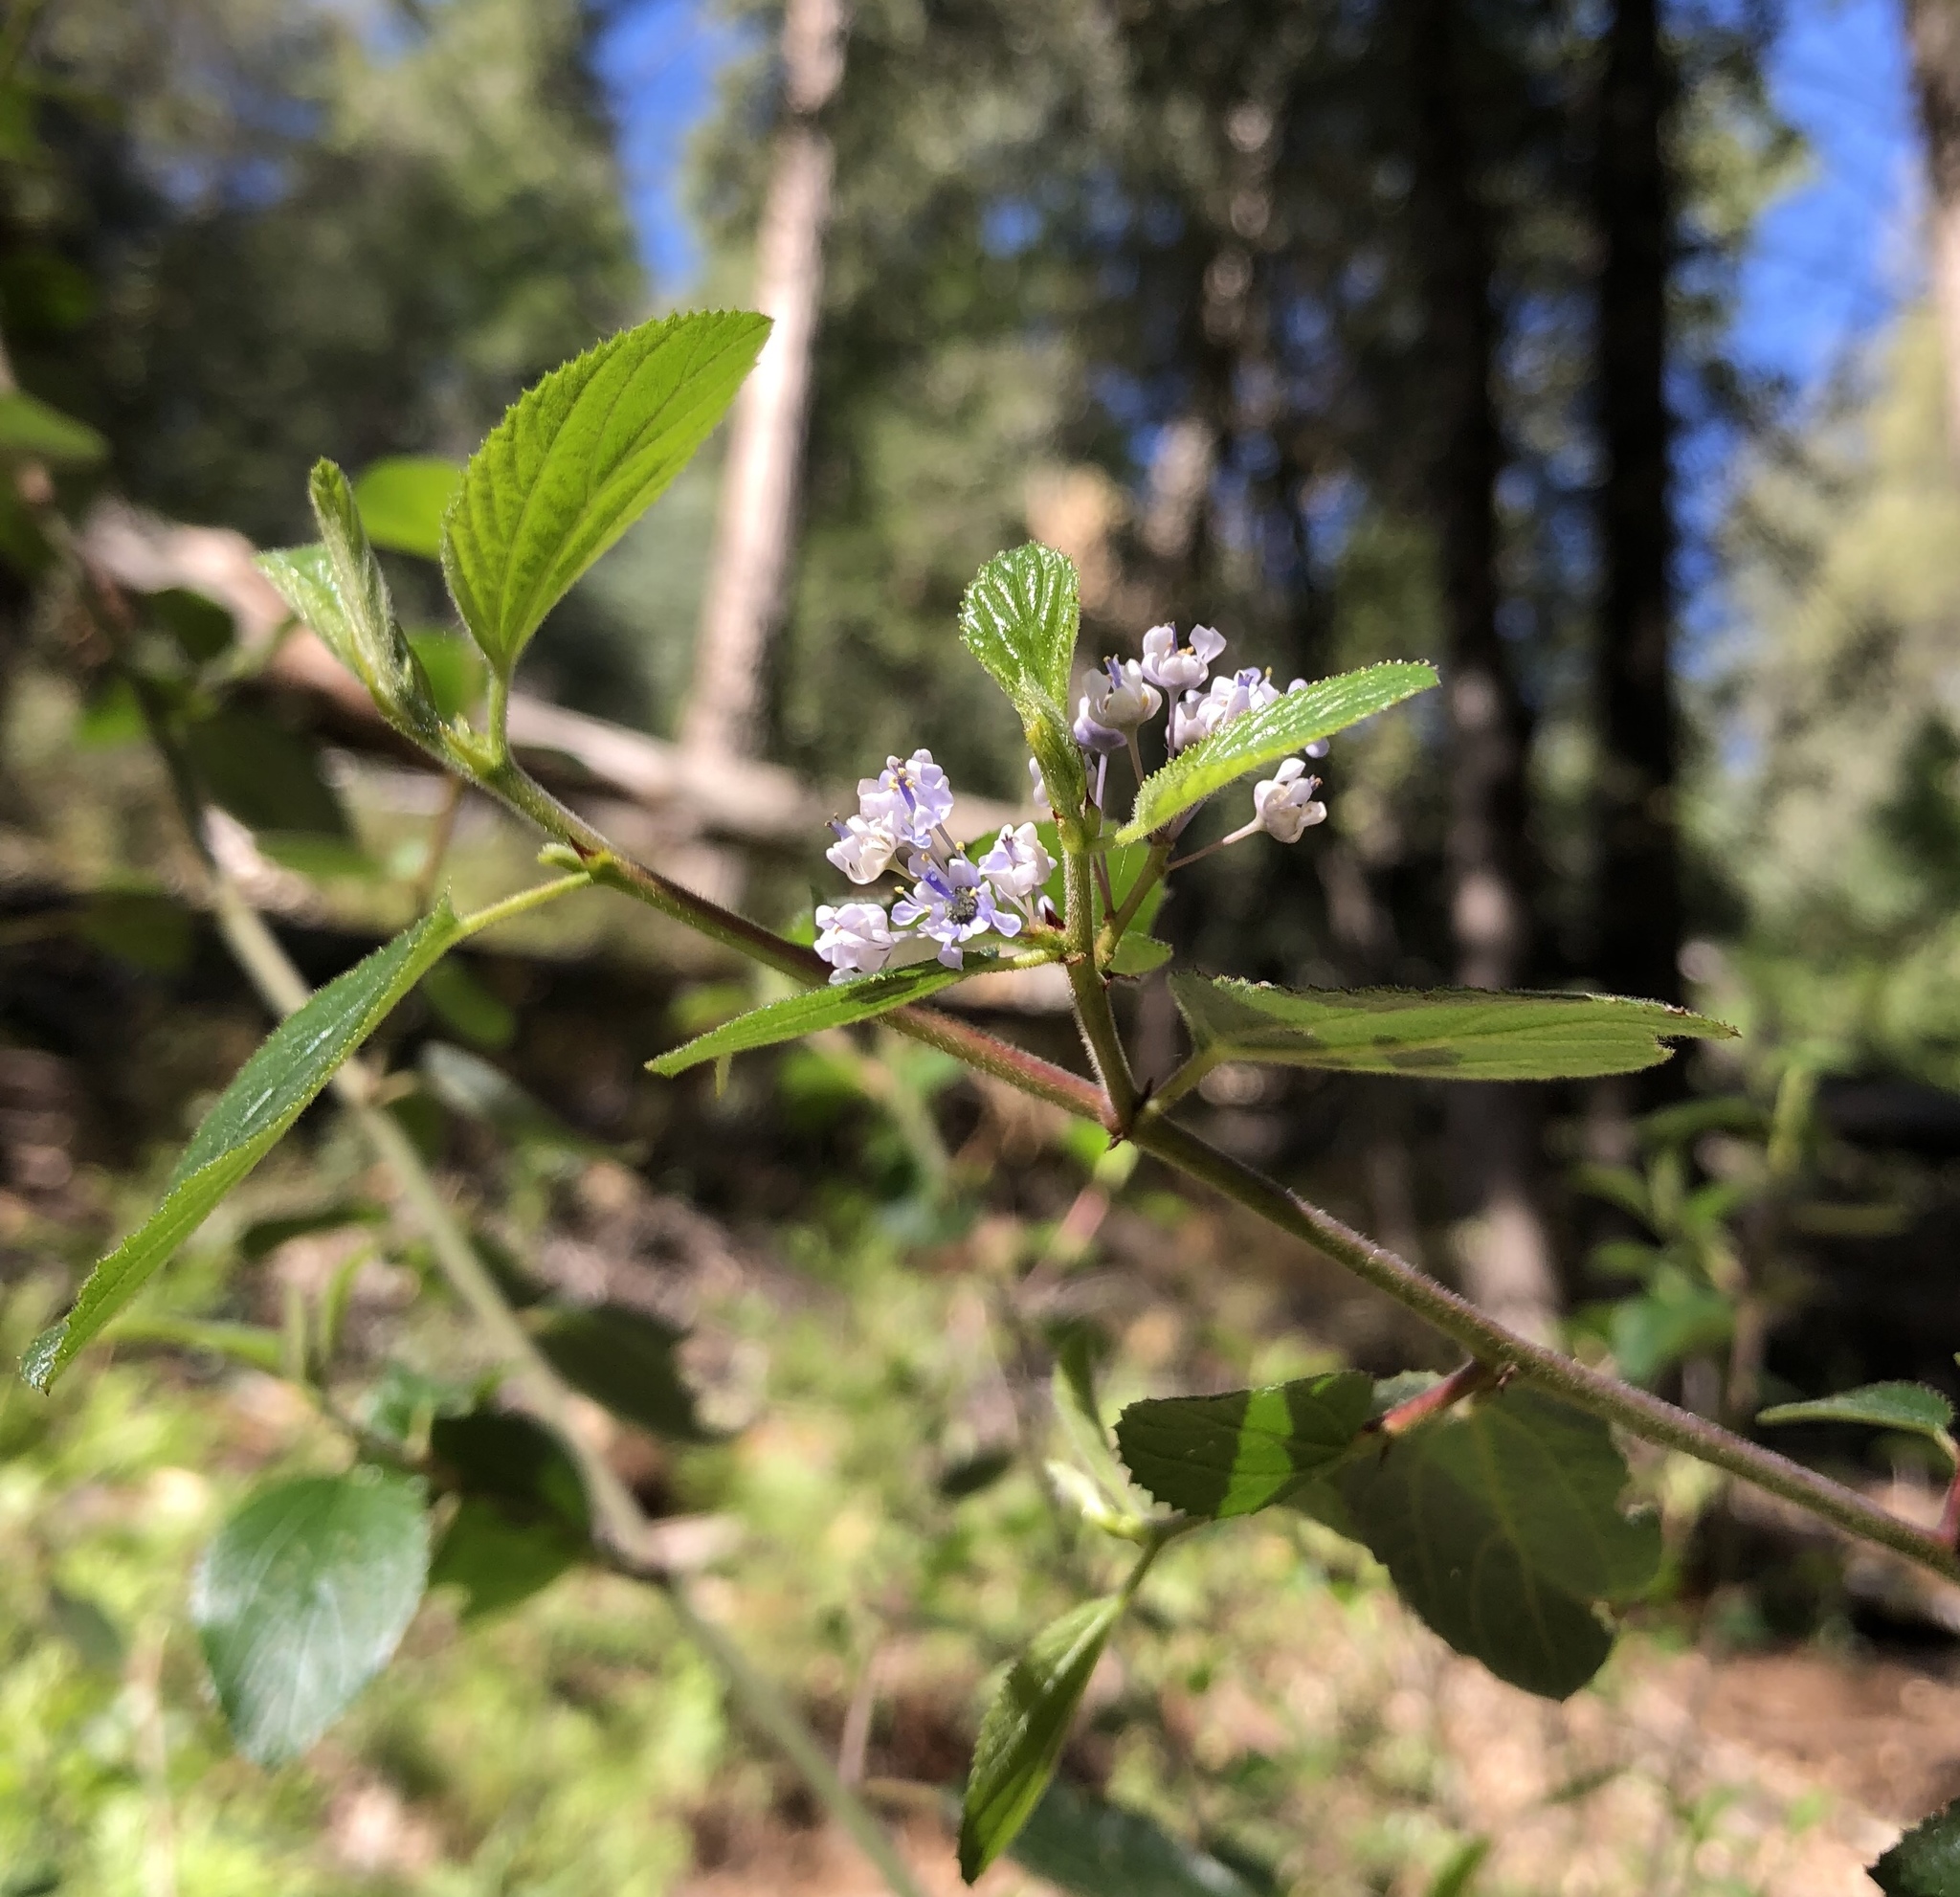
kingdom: Plantae
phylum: Tracheophyta
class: Magnoliopsida
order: Rosales
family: Rhamnaceae
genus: Ceanothus
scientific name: Ceanothus oliganthus
